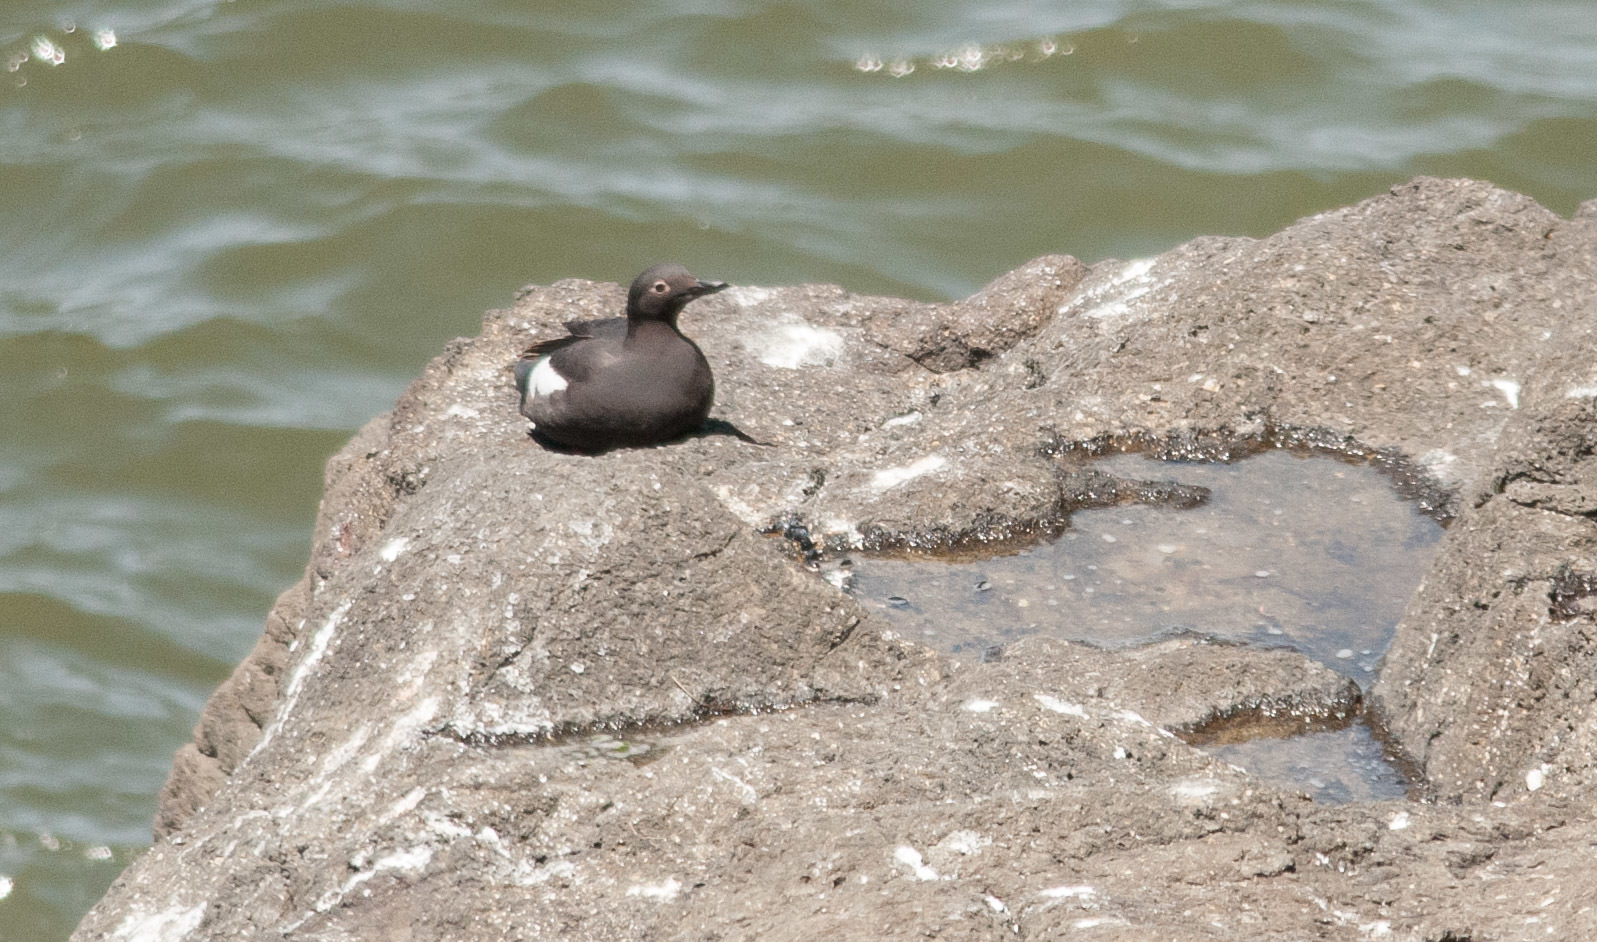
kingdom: Animalia
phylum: Chordata
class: Aves
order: Charadriiformes
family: Alcidae
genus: Cepphus
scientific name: Cepphus columba
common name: Pigeon guillemot
